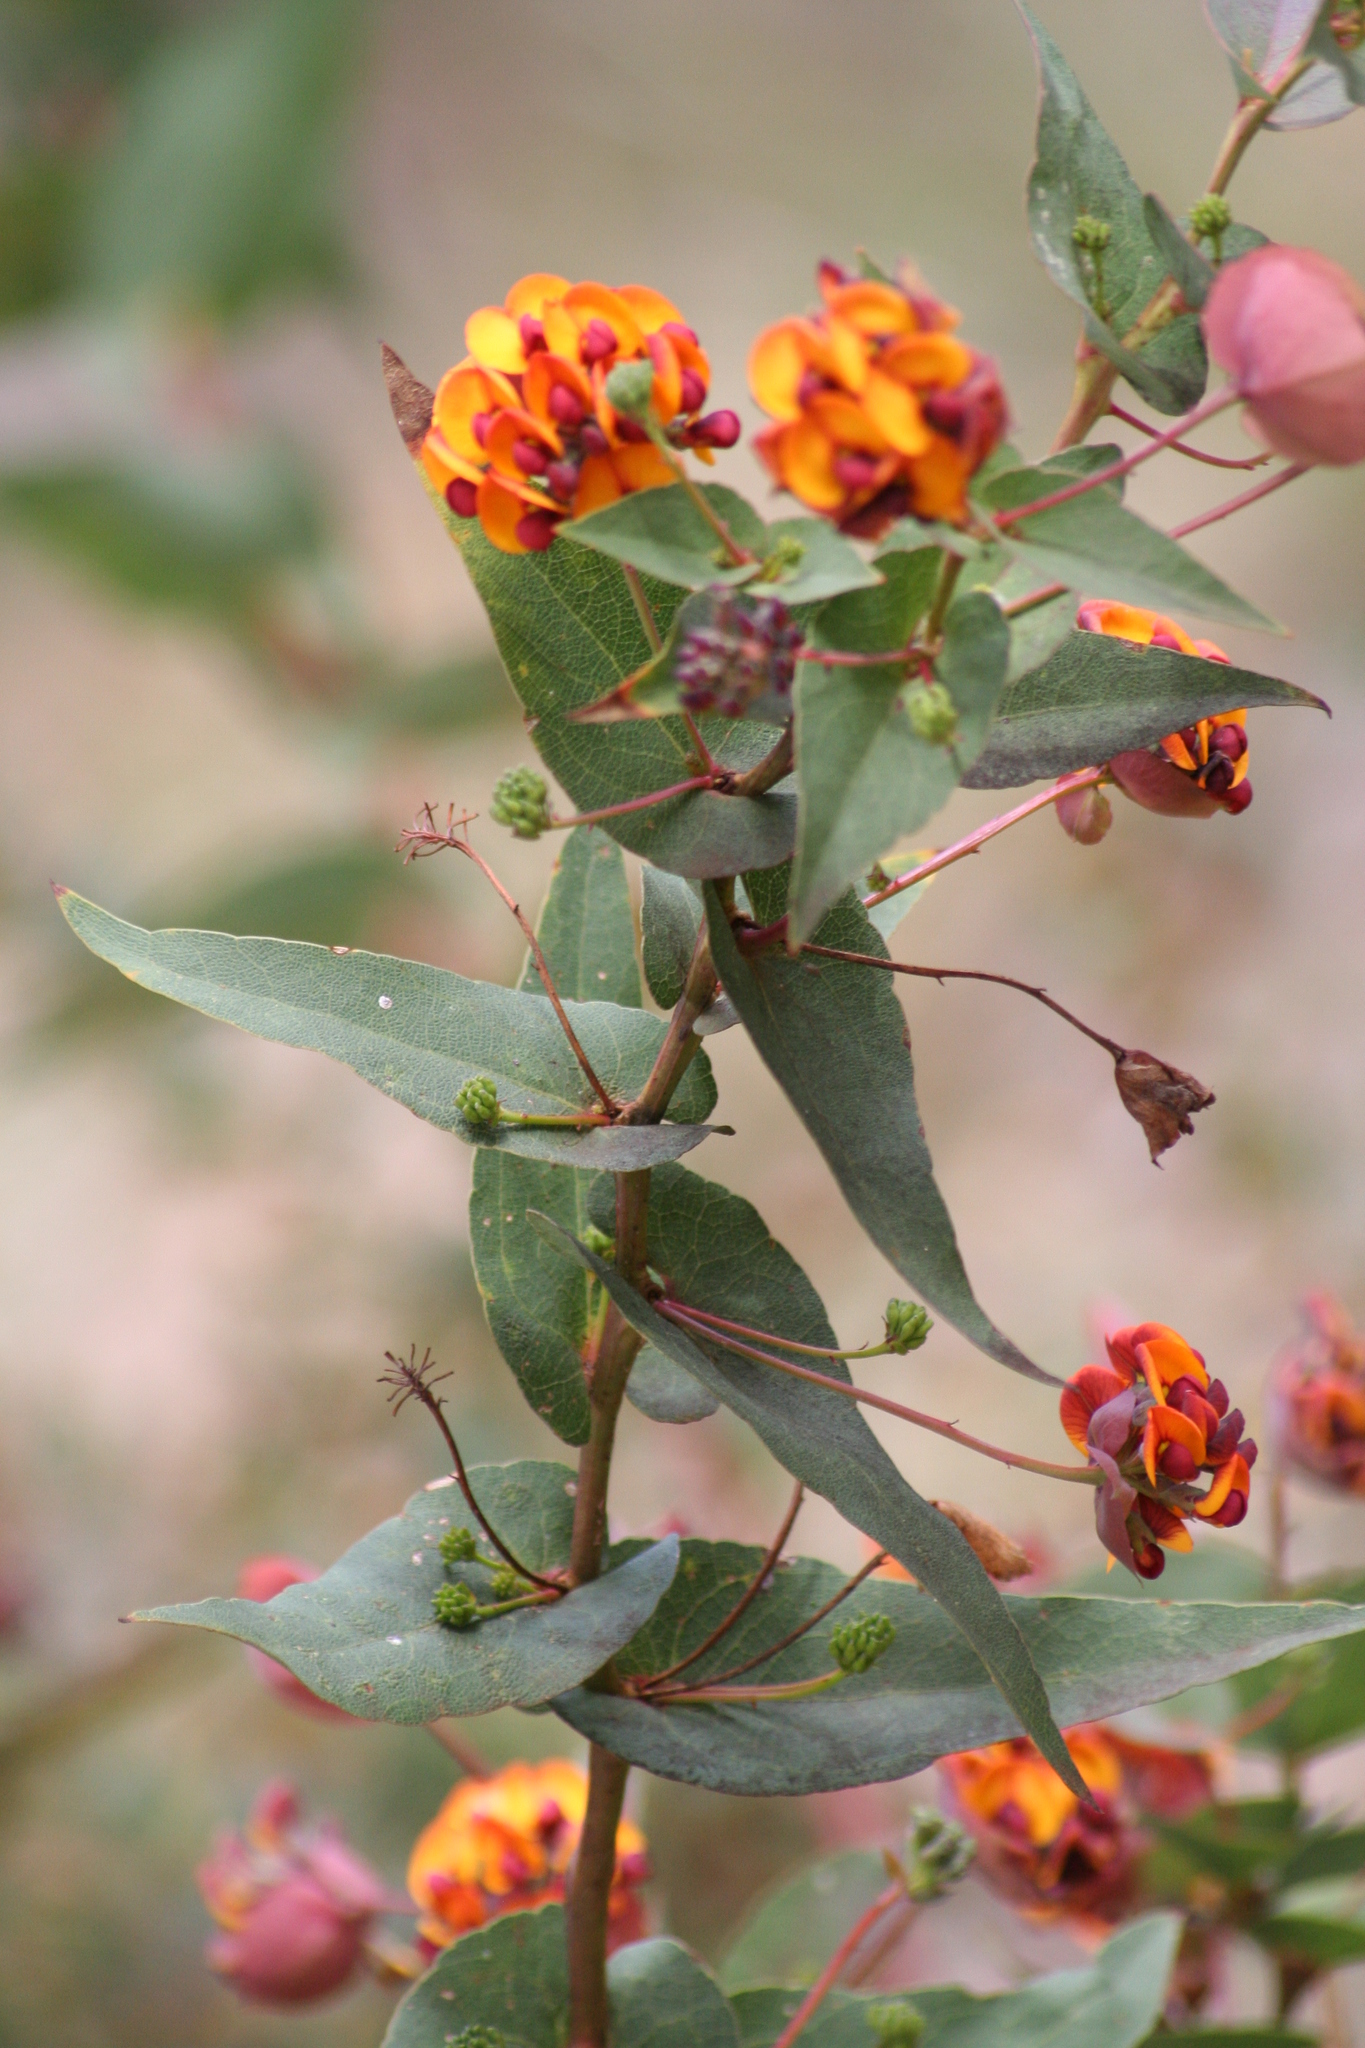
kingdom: Plantae
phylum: Tracheophyta
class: Magnoliopsida
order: Fabales
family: Fabaceae
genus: Daviesia
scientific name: Daviesia cordata
